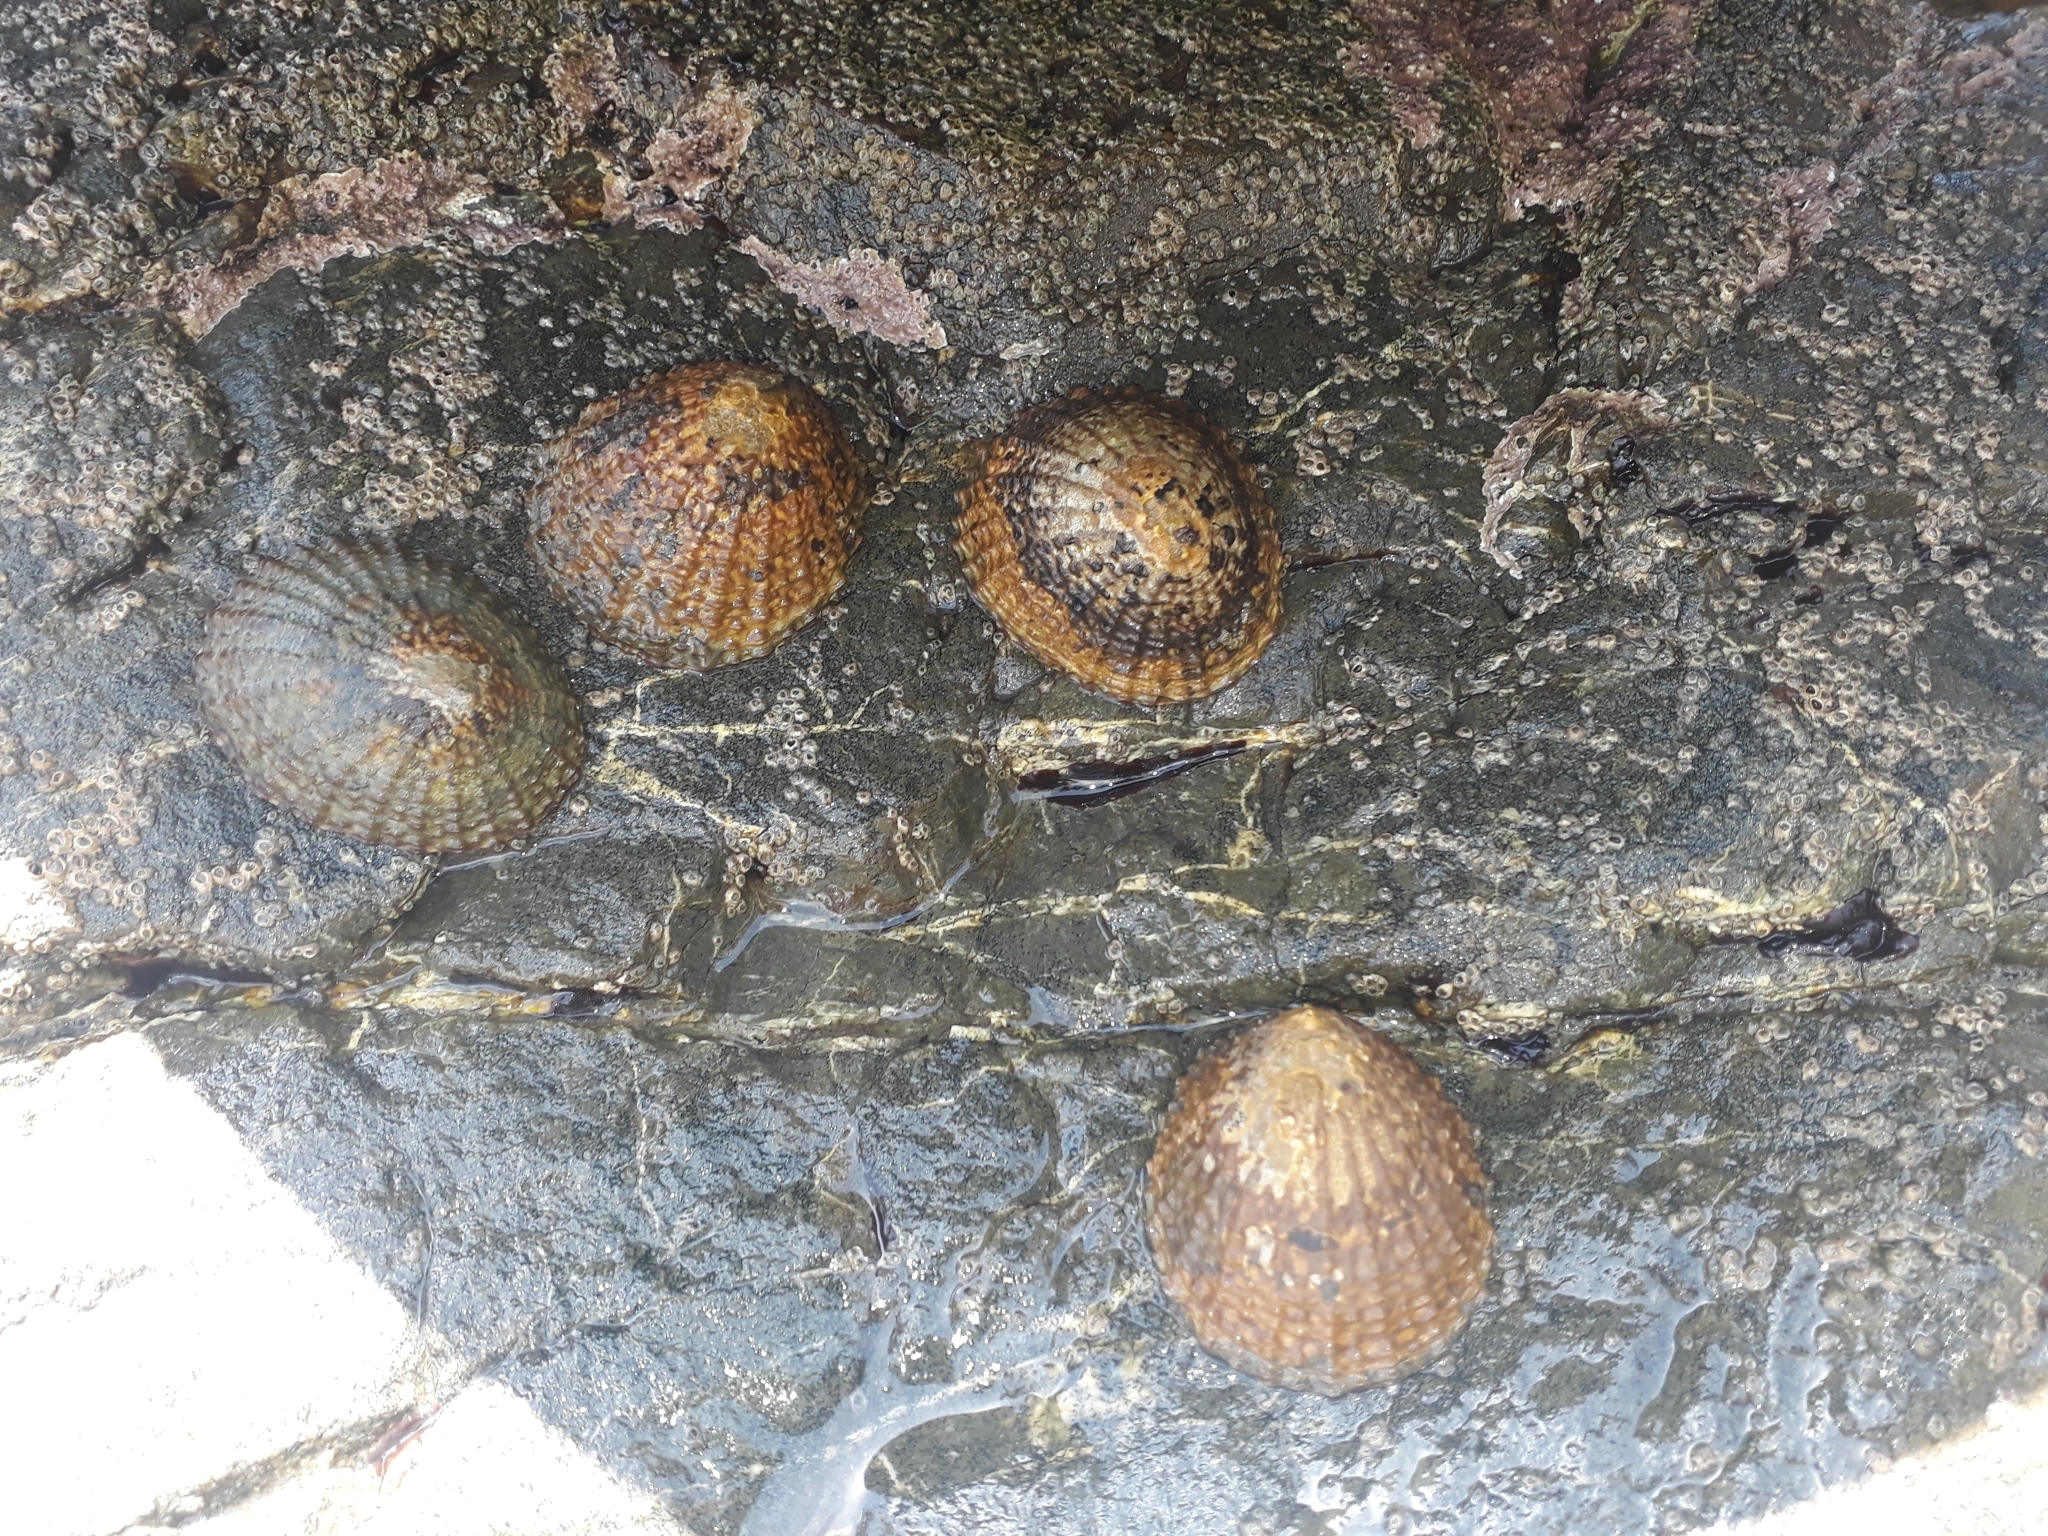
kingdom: Animalia
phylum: Mollusca
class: Gastropoda
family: Nacellidae
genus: Cellana
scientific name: Cellana denticulata
